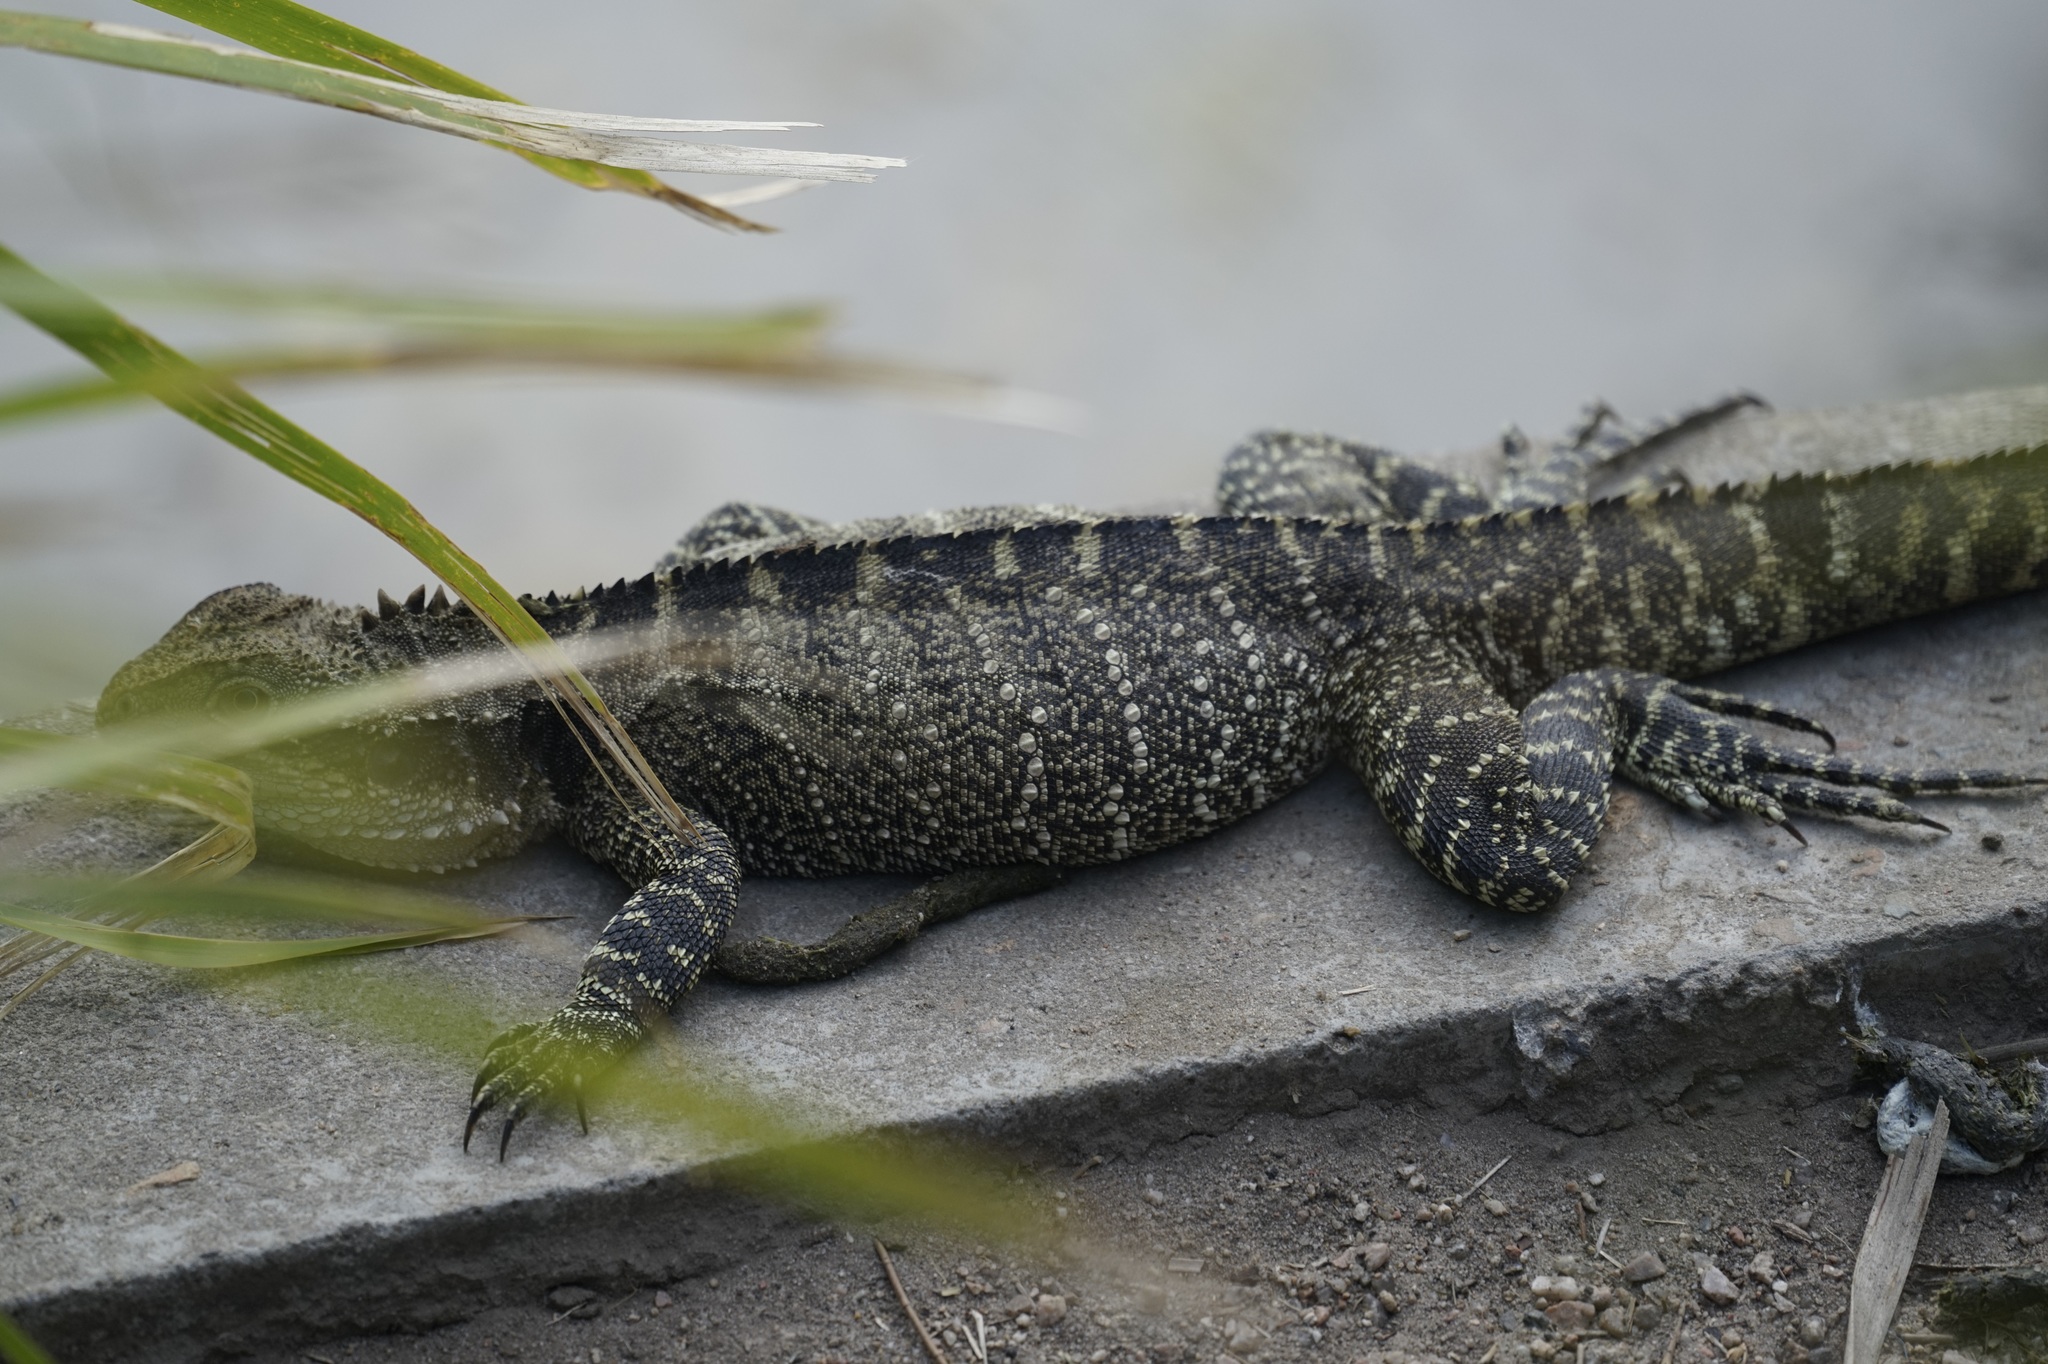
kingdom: Animalia
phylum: Chordata
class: Squamata
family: Agamidae
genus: Intellagama
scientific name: Intellagama lesueurii
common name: Eastern water dragon
